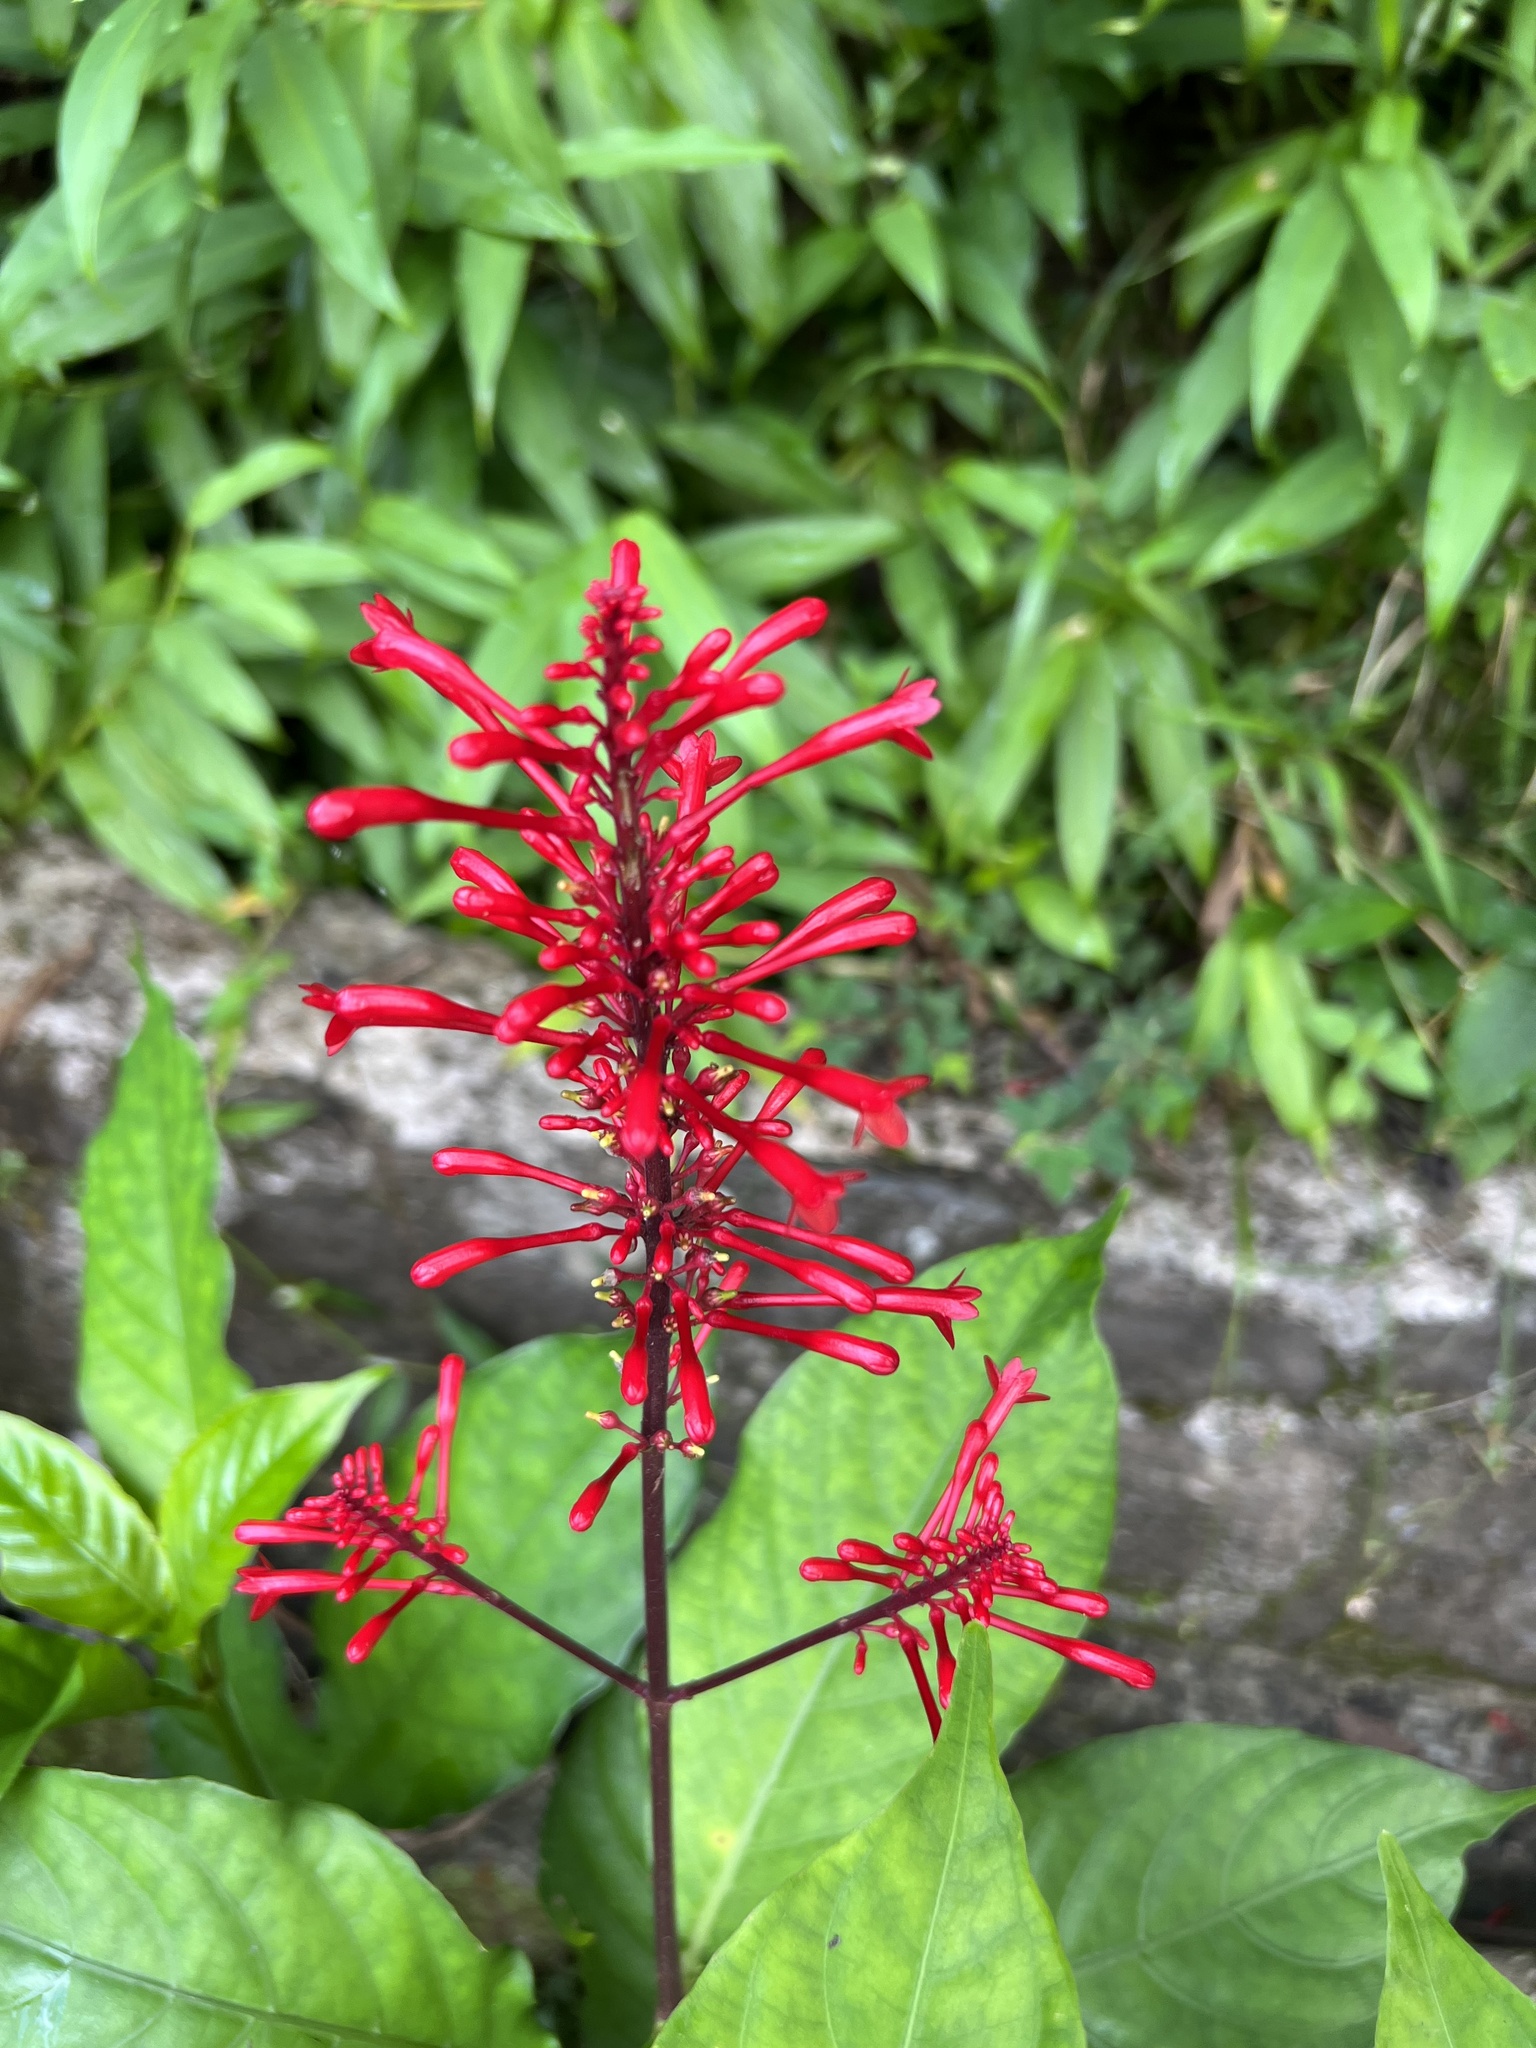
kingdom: Plantae
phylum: Tracheophyta
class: Magnoliopsida
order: Lamiales
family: Acanthaceae
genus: Odontonema
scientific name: Odontonema cuspidatum
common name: Mottled toothedthread
